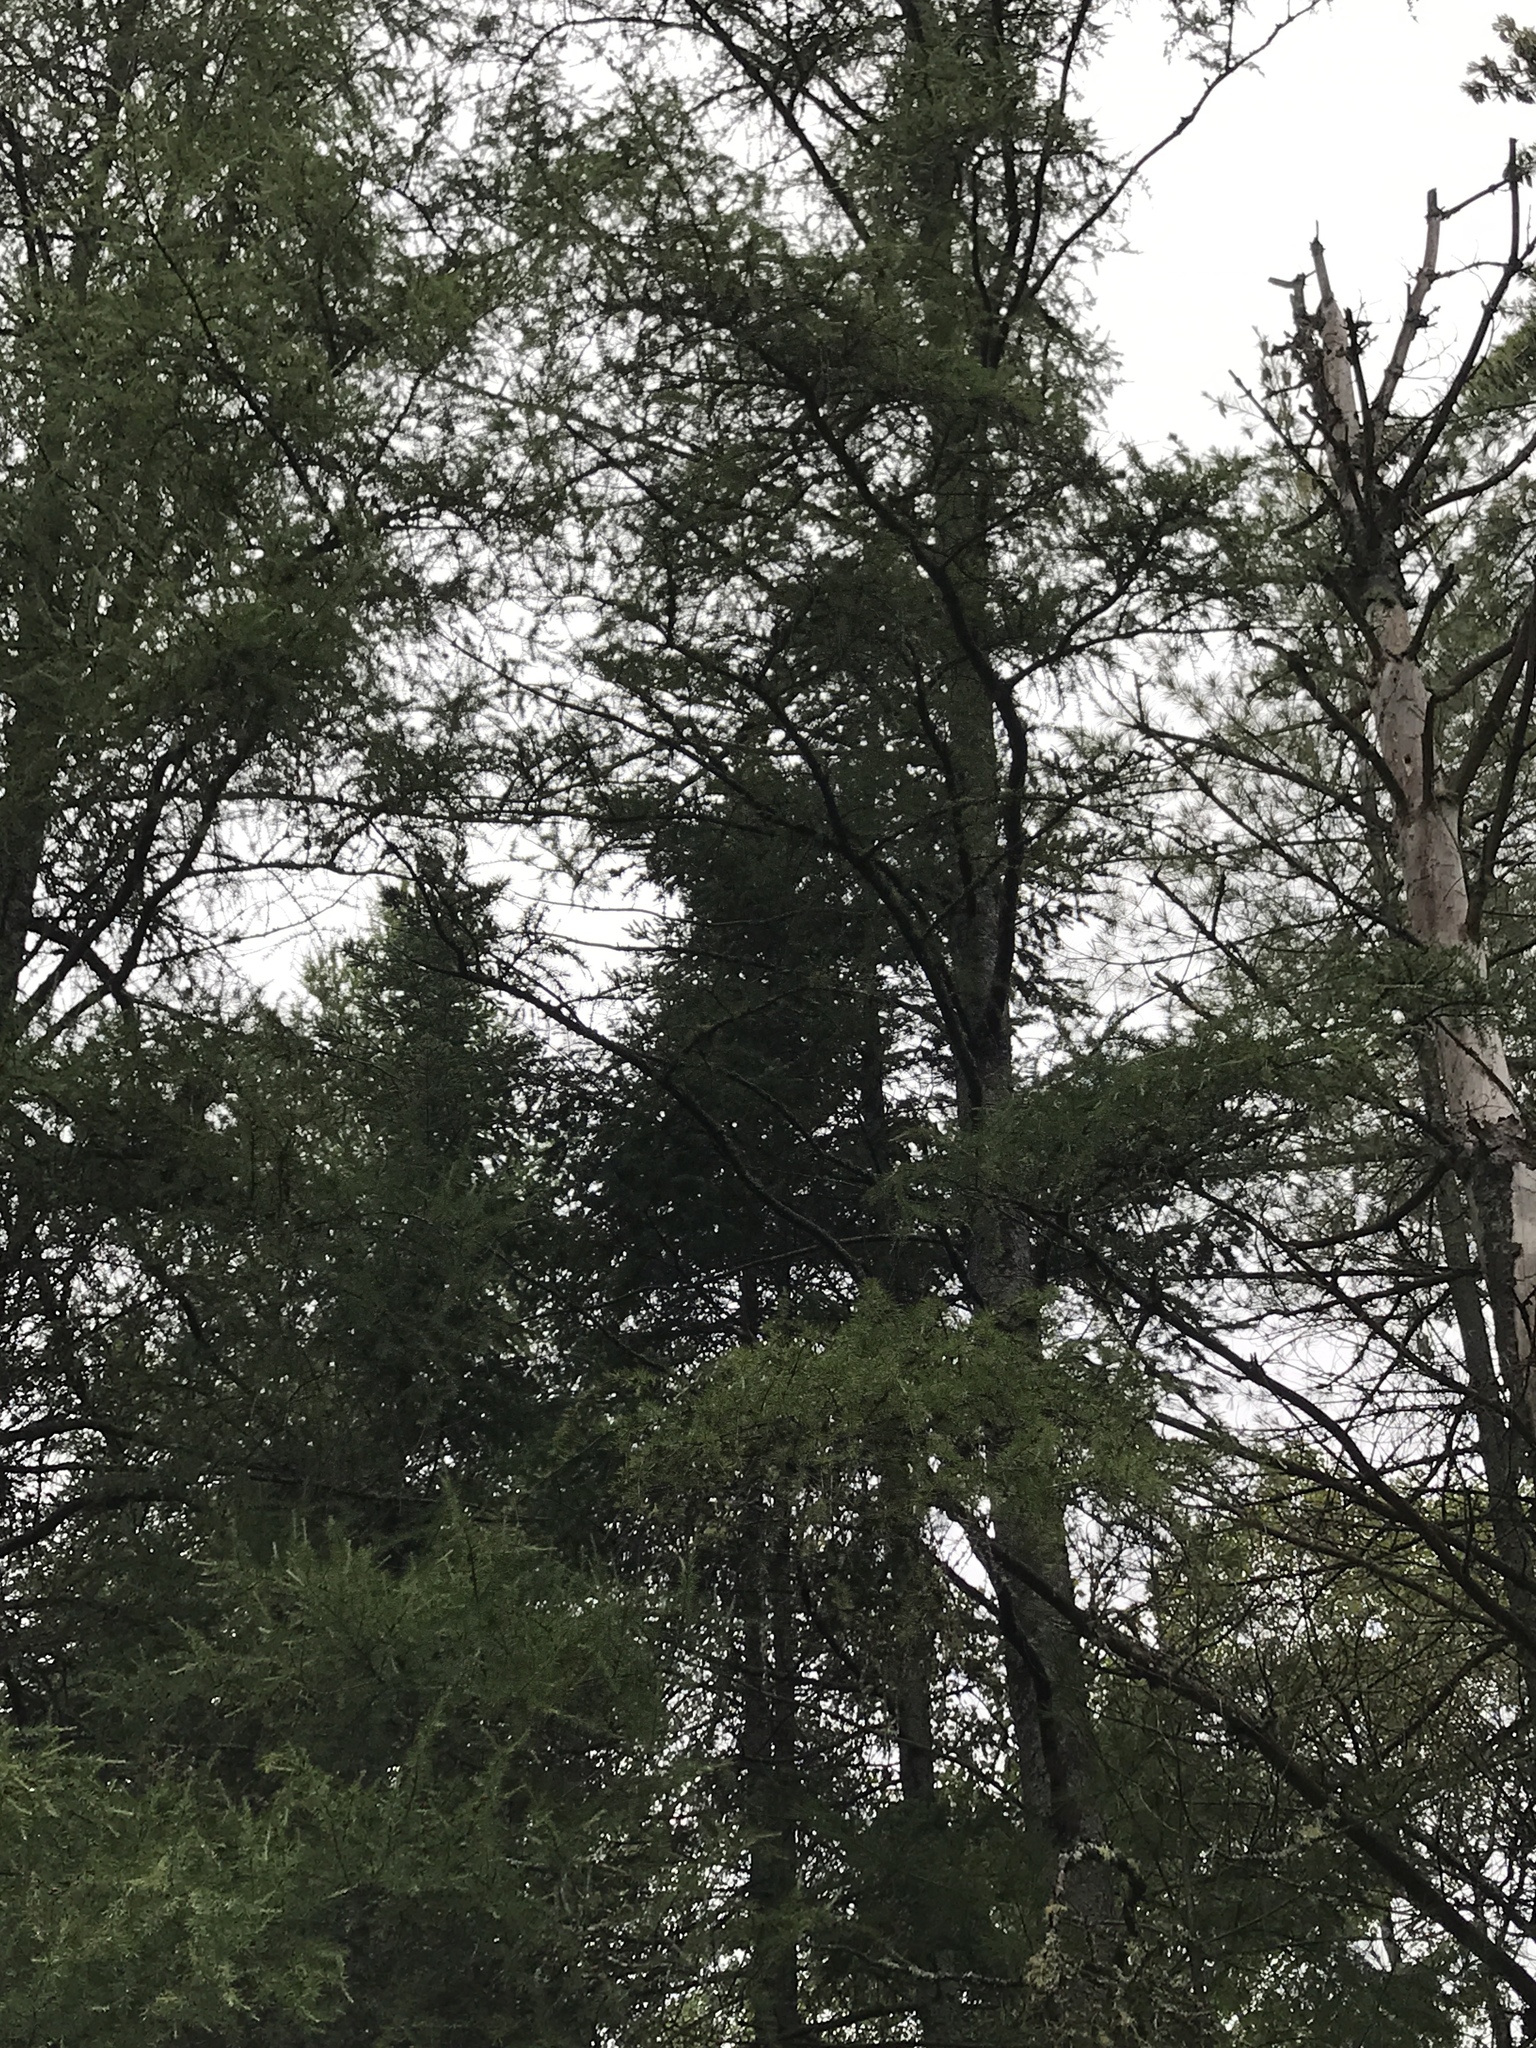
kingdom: Plantae
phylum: Tracheophyta
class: Pinopsida
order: Pinales
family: Pinaceae
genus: Larix
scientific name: Larix laricina
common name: American larch
